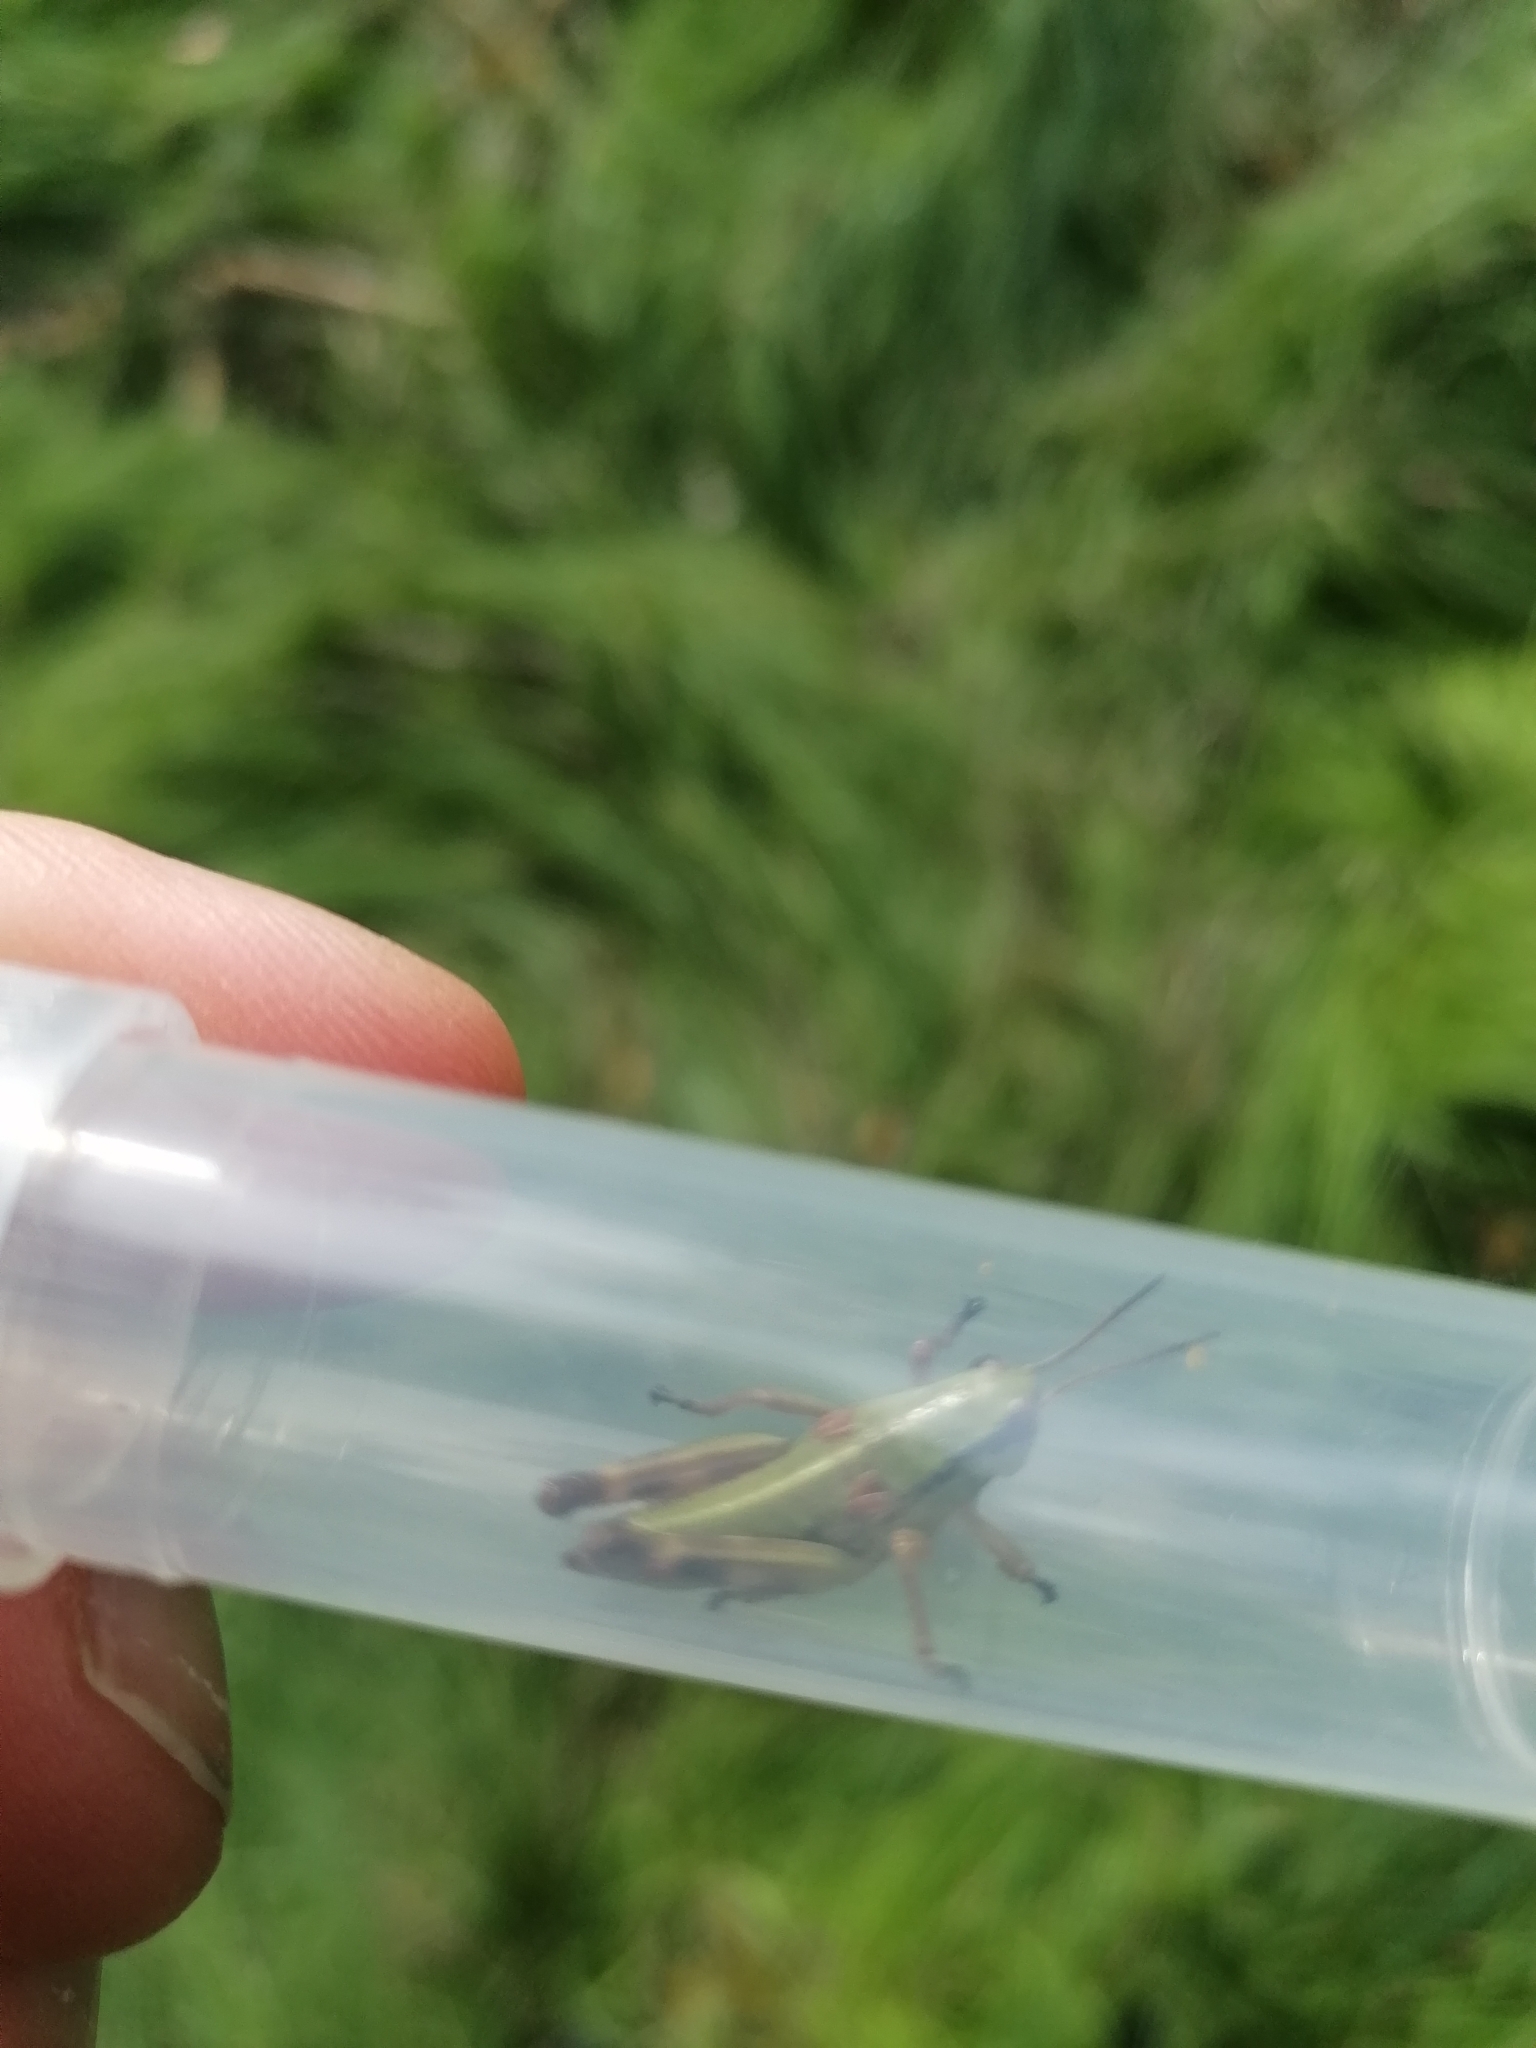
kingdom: Animalia
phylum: Arthropoda
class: Insecta
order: Orthoptera
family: Acrididae
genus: Miramella
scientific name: Miramella alpina
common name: Green mountain grasshopper
